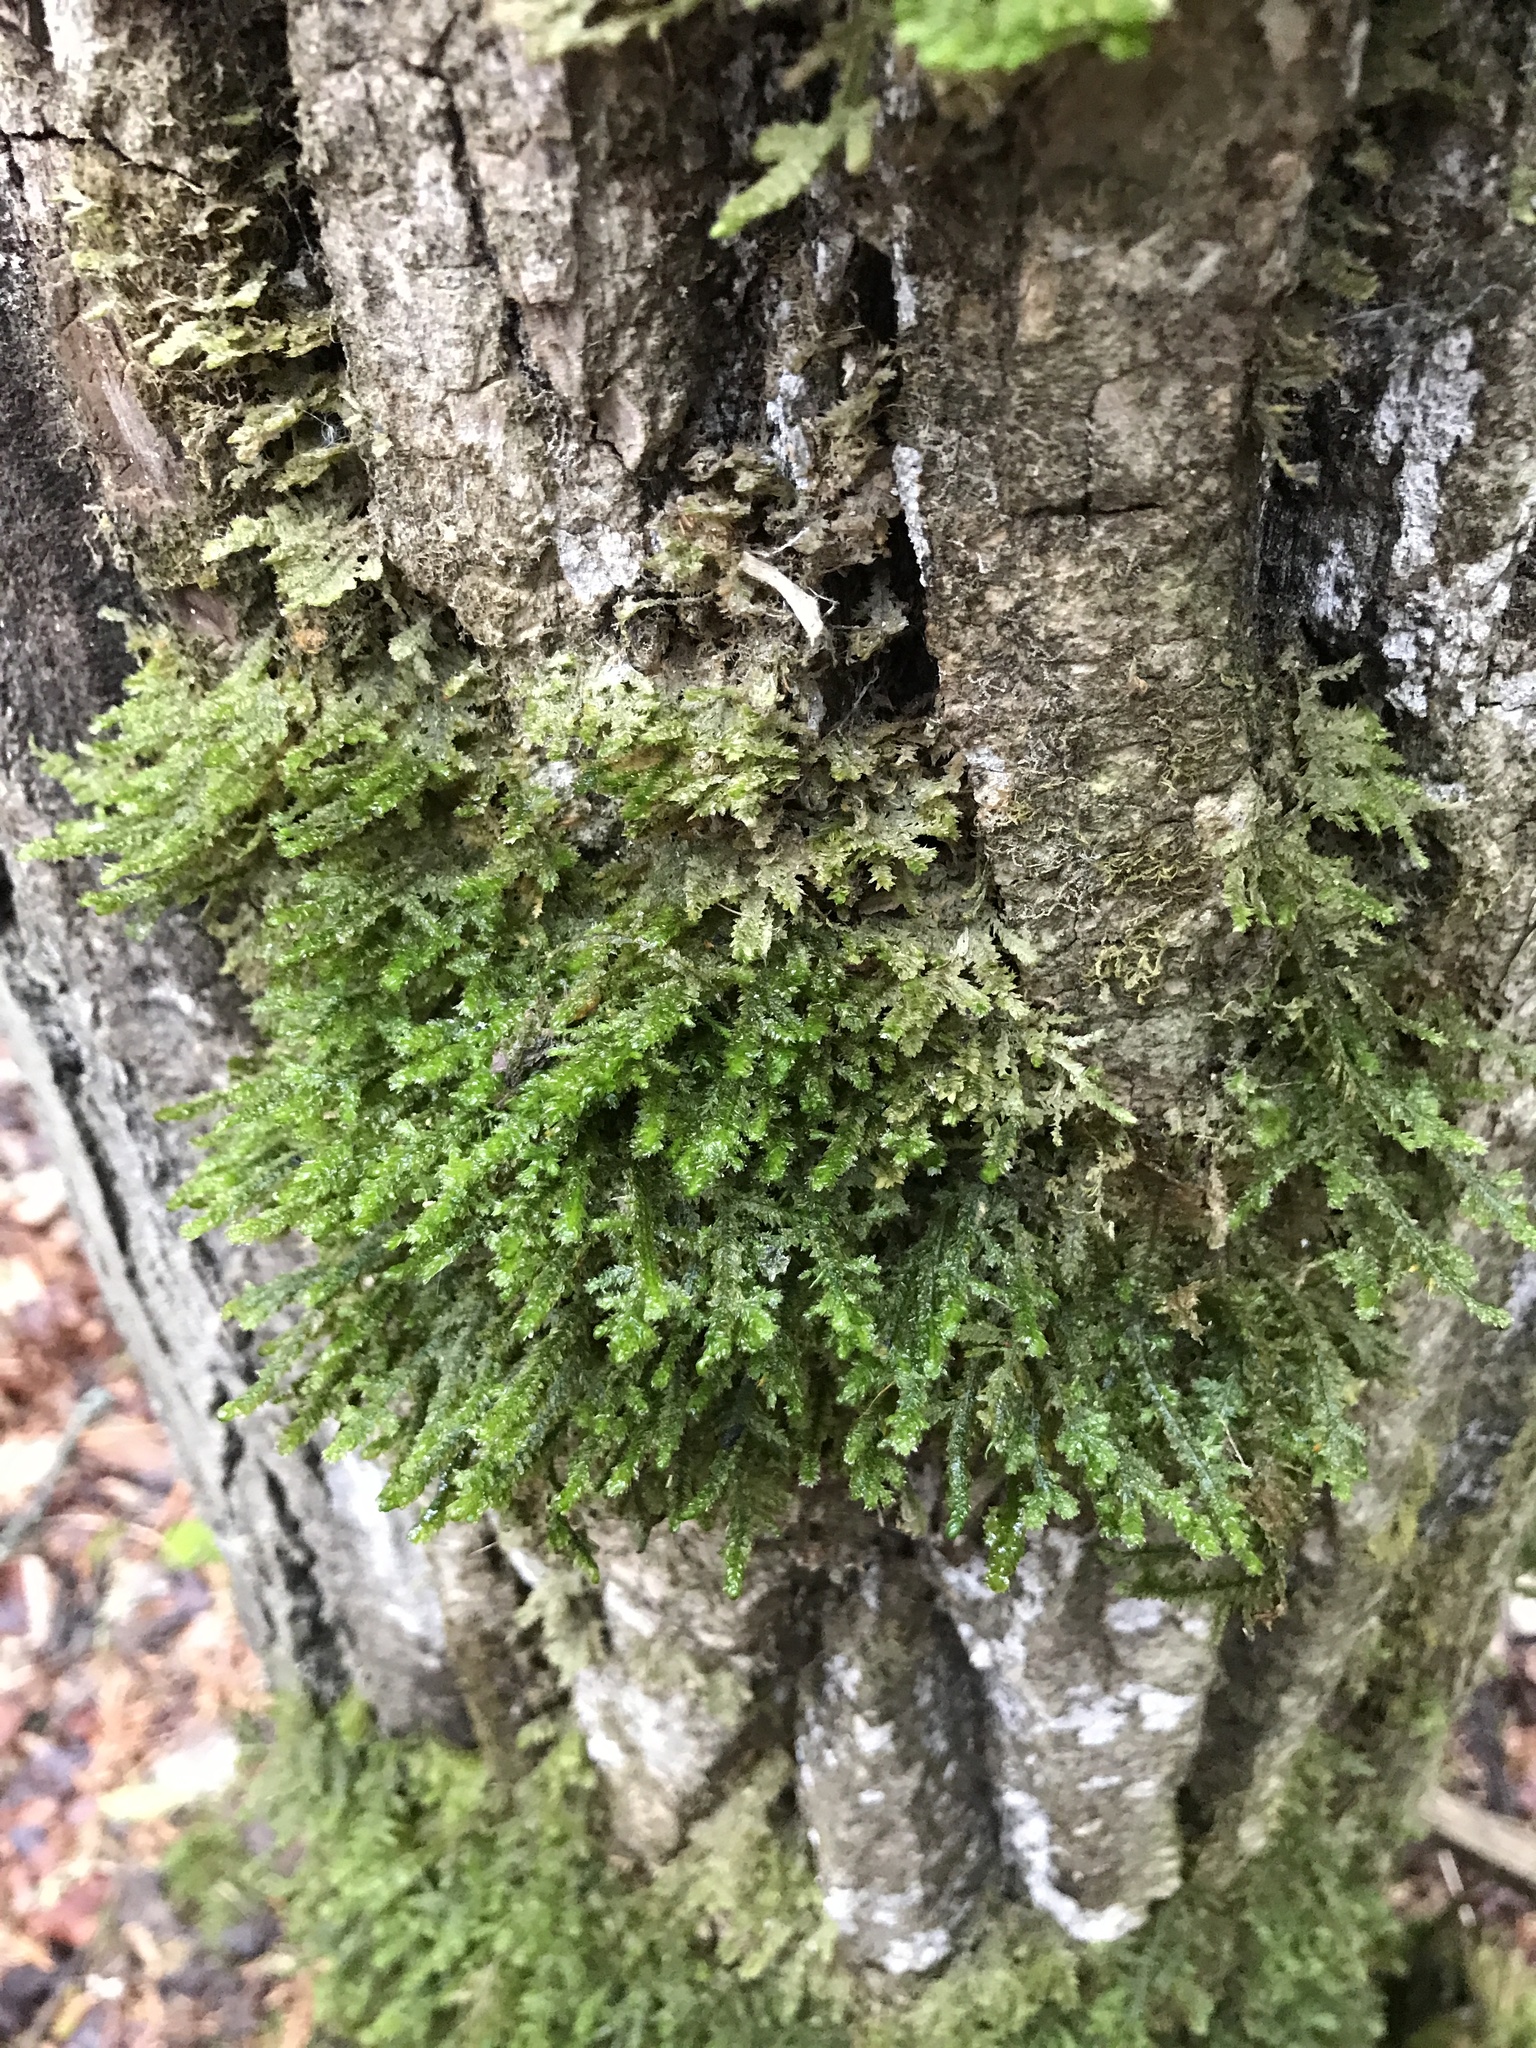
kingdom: Plantae
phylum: Bryophyta
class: Bryopsida
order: Hypnales
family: Neckeraceae
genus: Neckera
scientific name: Neckera pennata
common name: Feathery neckera
